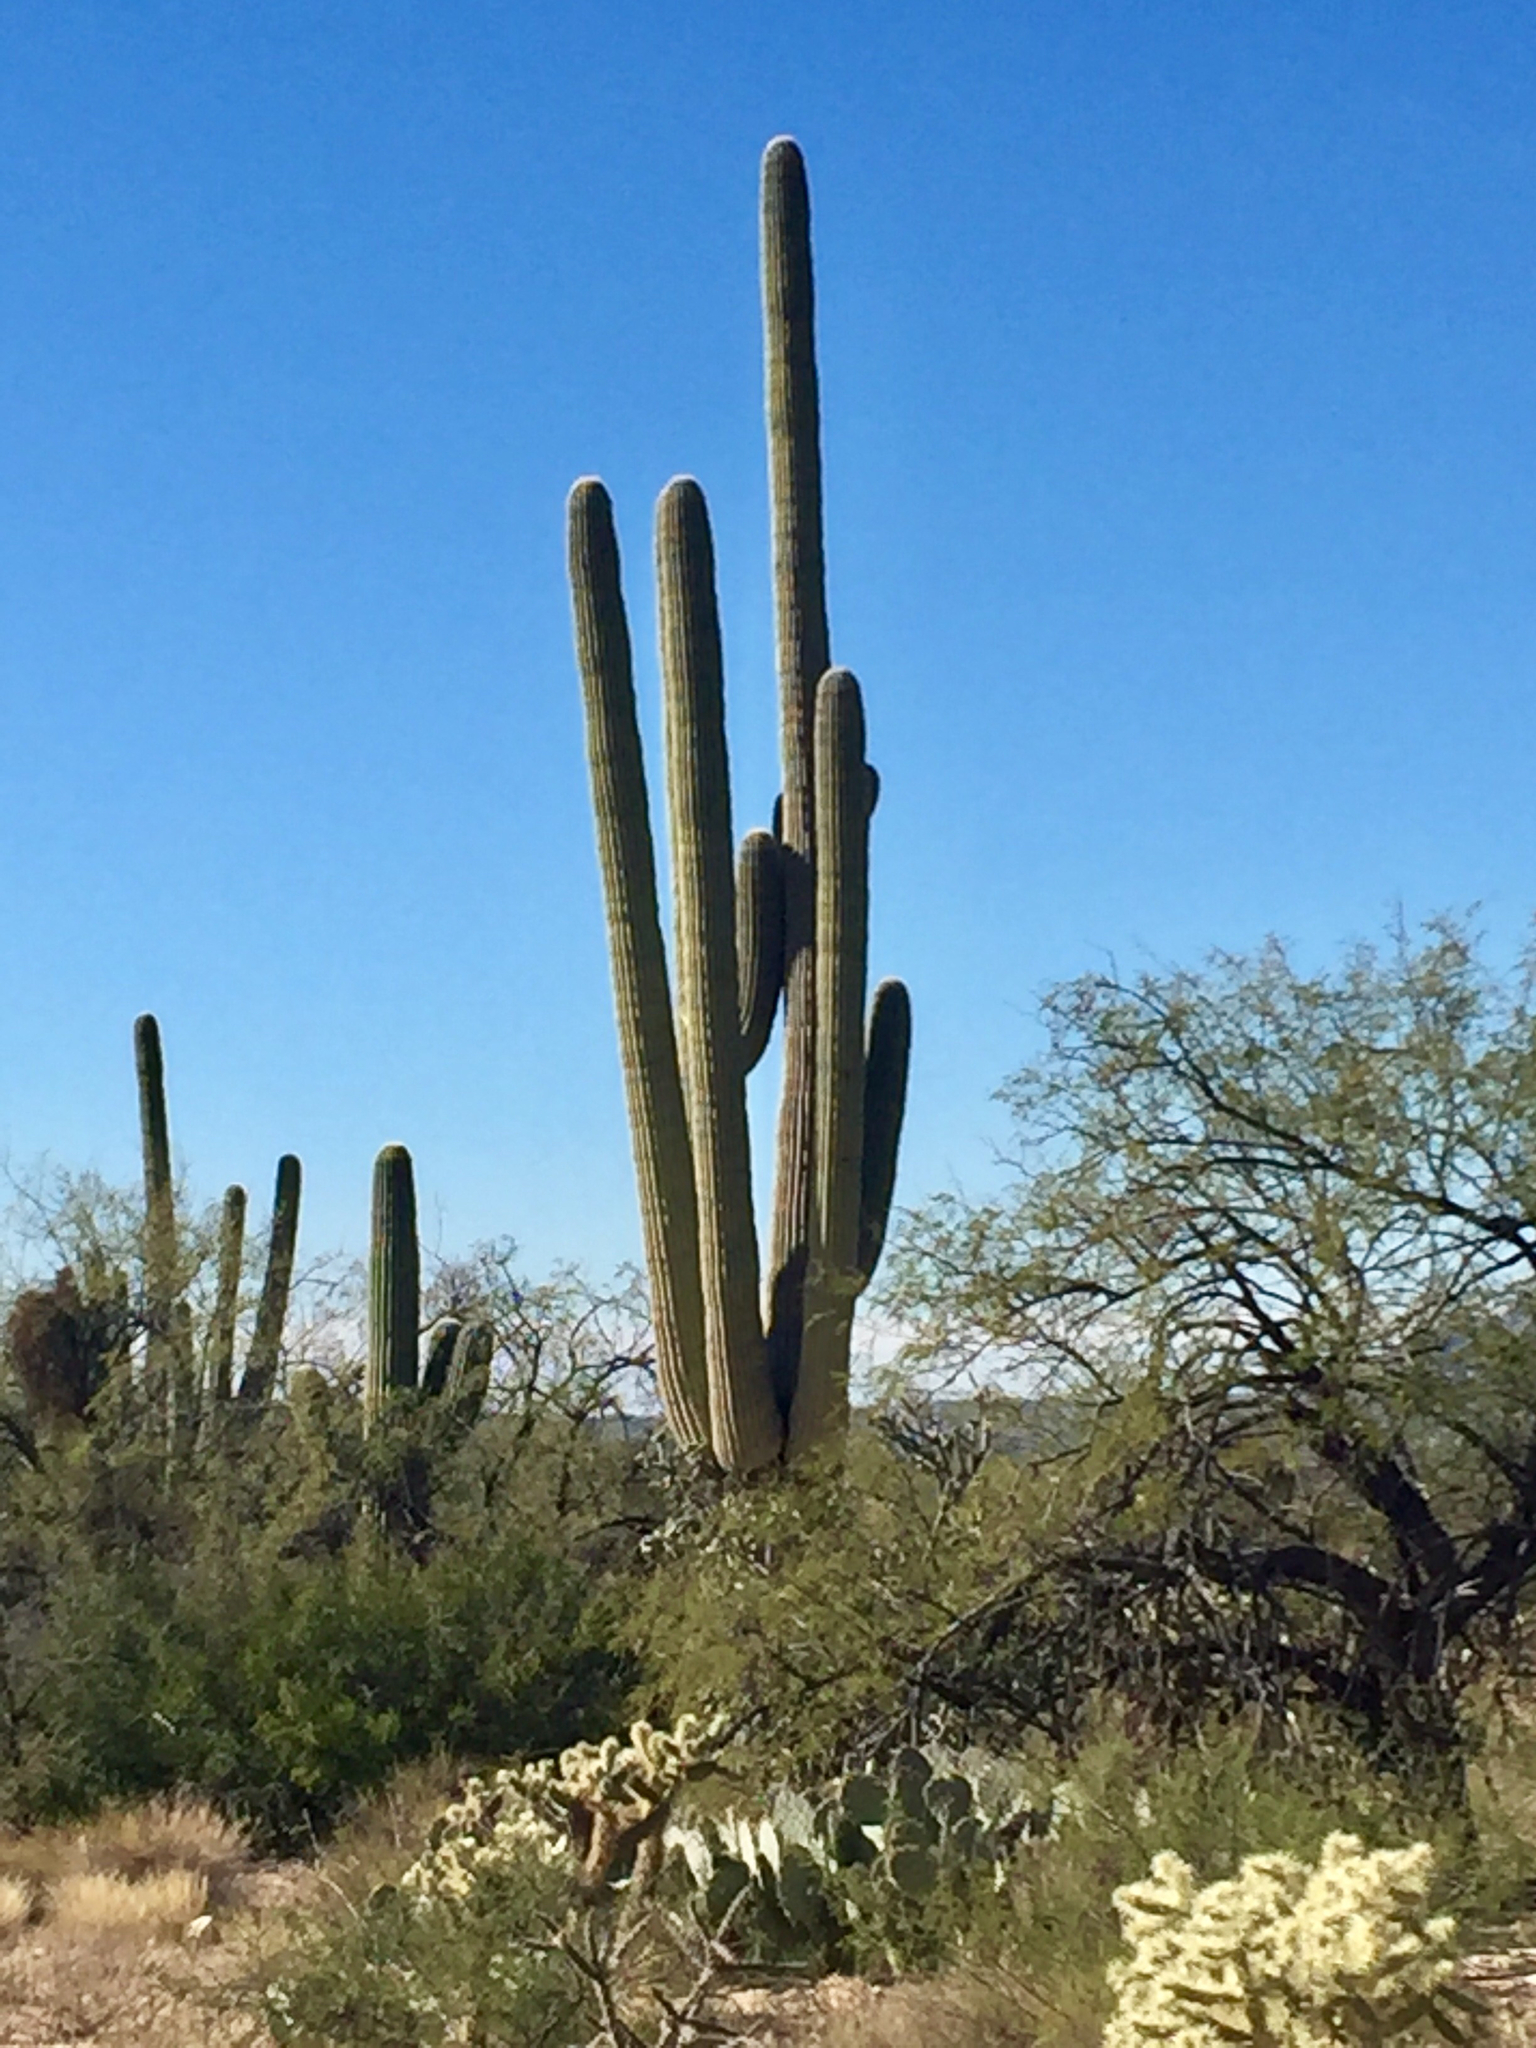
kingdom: Plantae
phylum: Tracheophyta
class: Magnoliopsida
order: Caryophyllales
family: Cactaceae
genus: Carnegiea
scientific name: Carnegiea gigantea
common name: Saguaro
